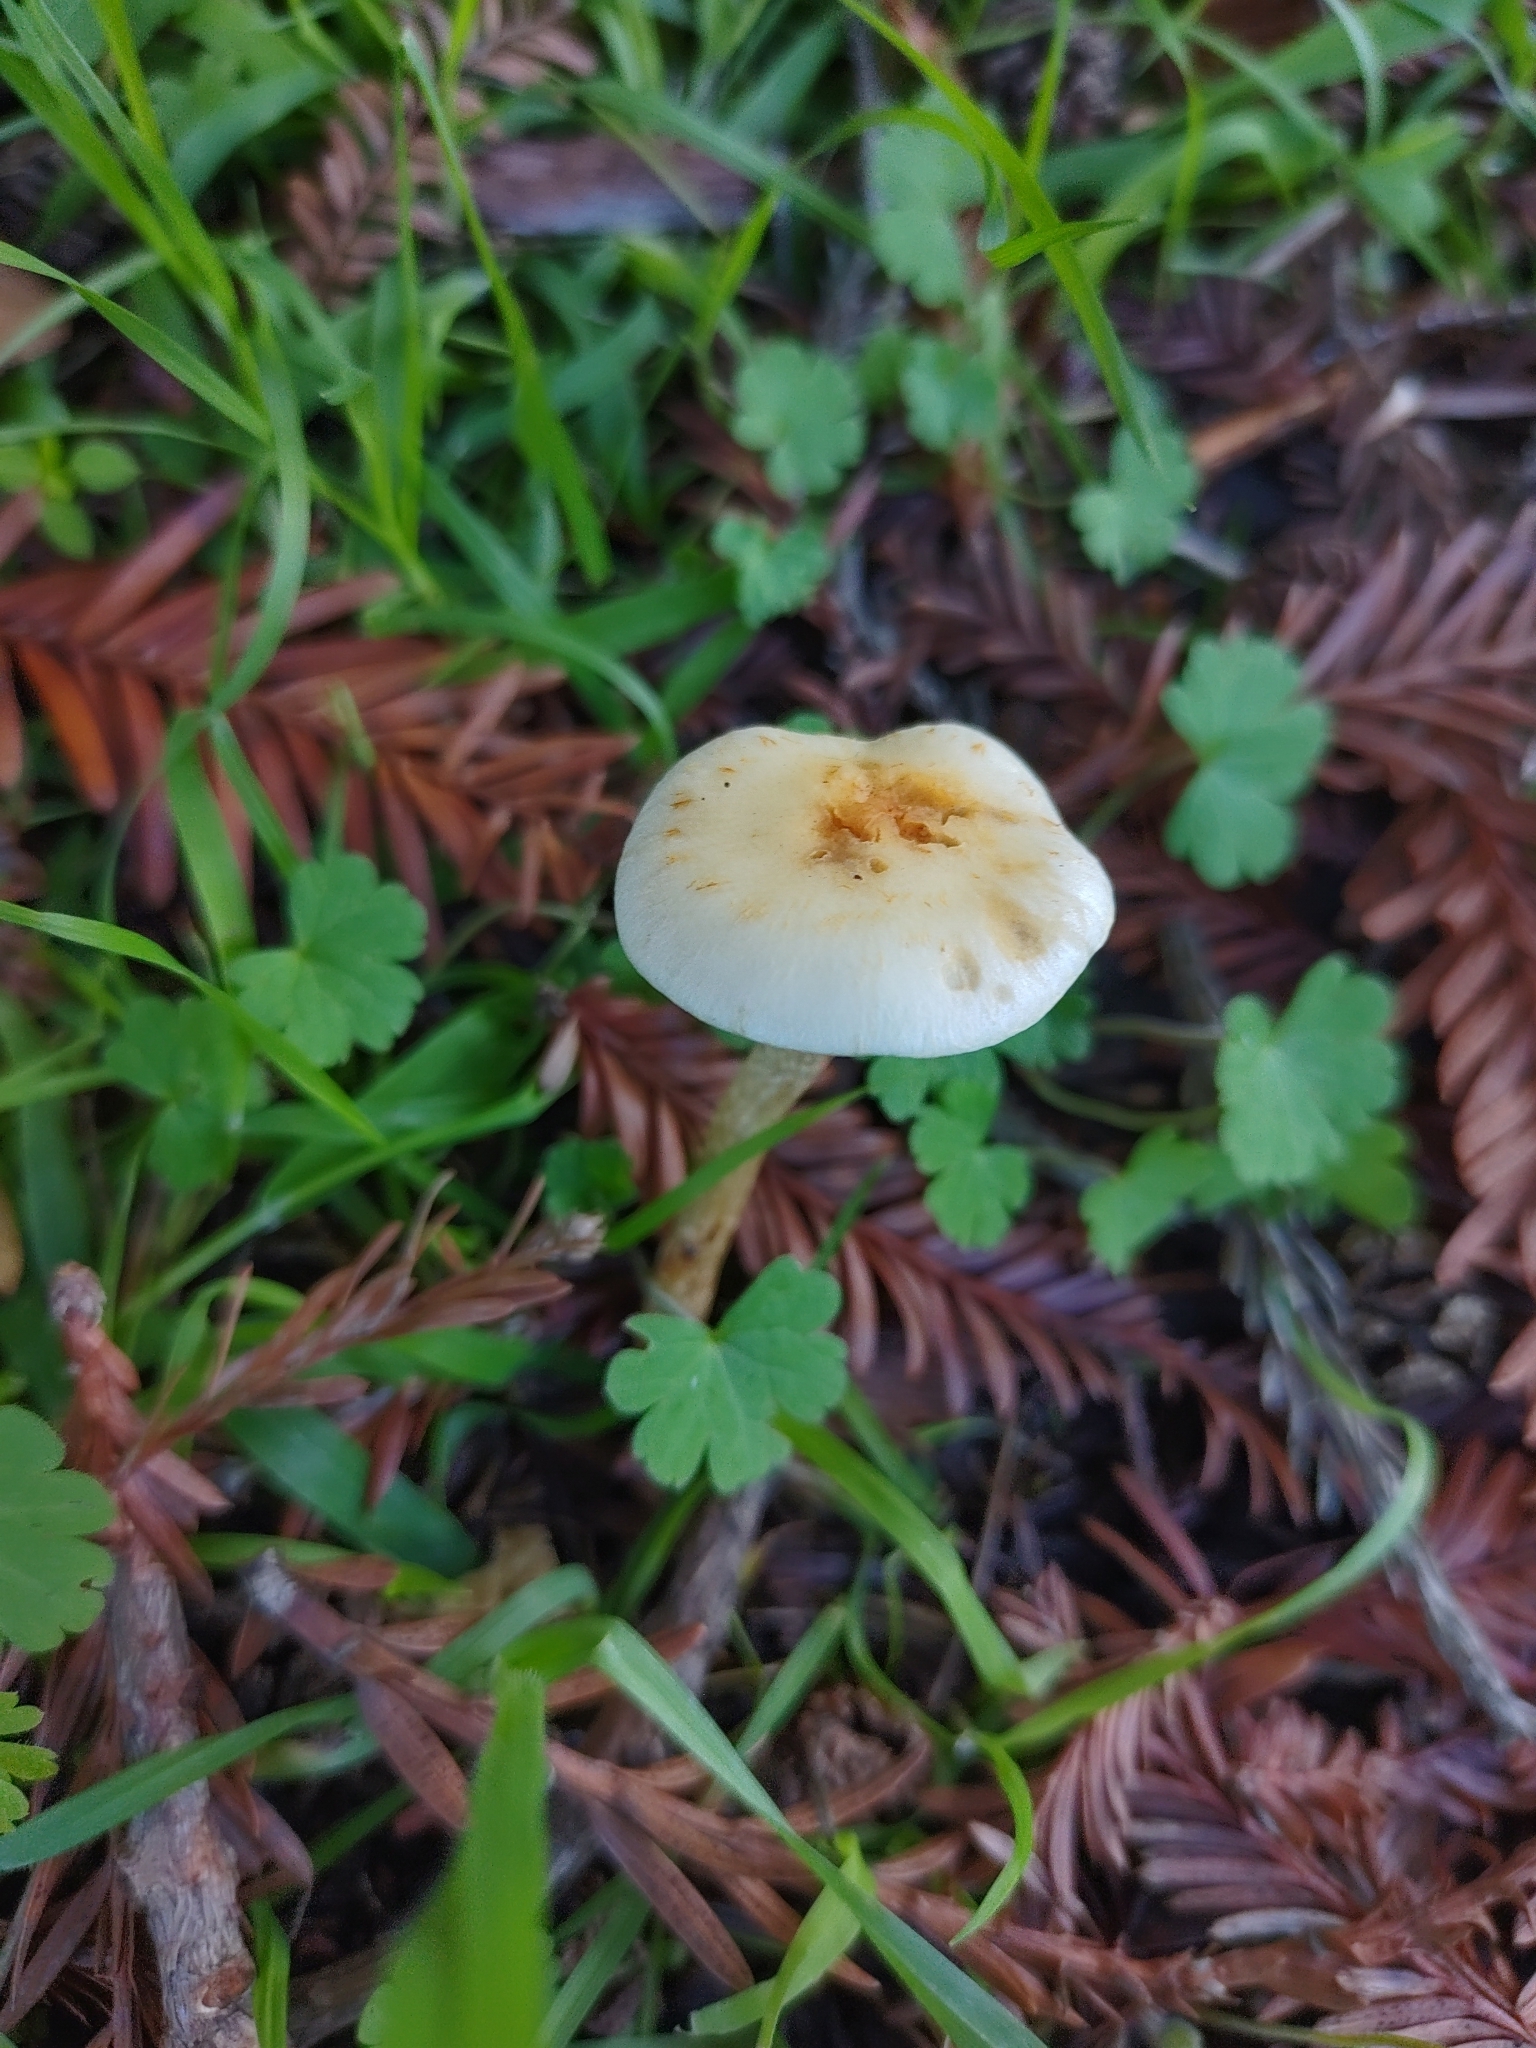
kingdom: Fungi
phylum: Basidiomycota
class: Agaricomycetes
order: Agaricales
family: Strophariaceae
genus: Leratiomyces
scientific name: Leratiomyces percevalii
